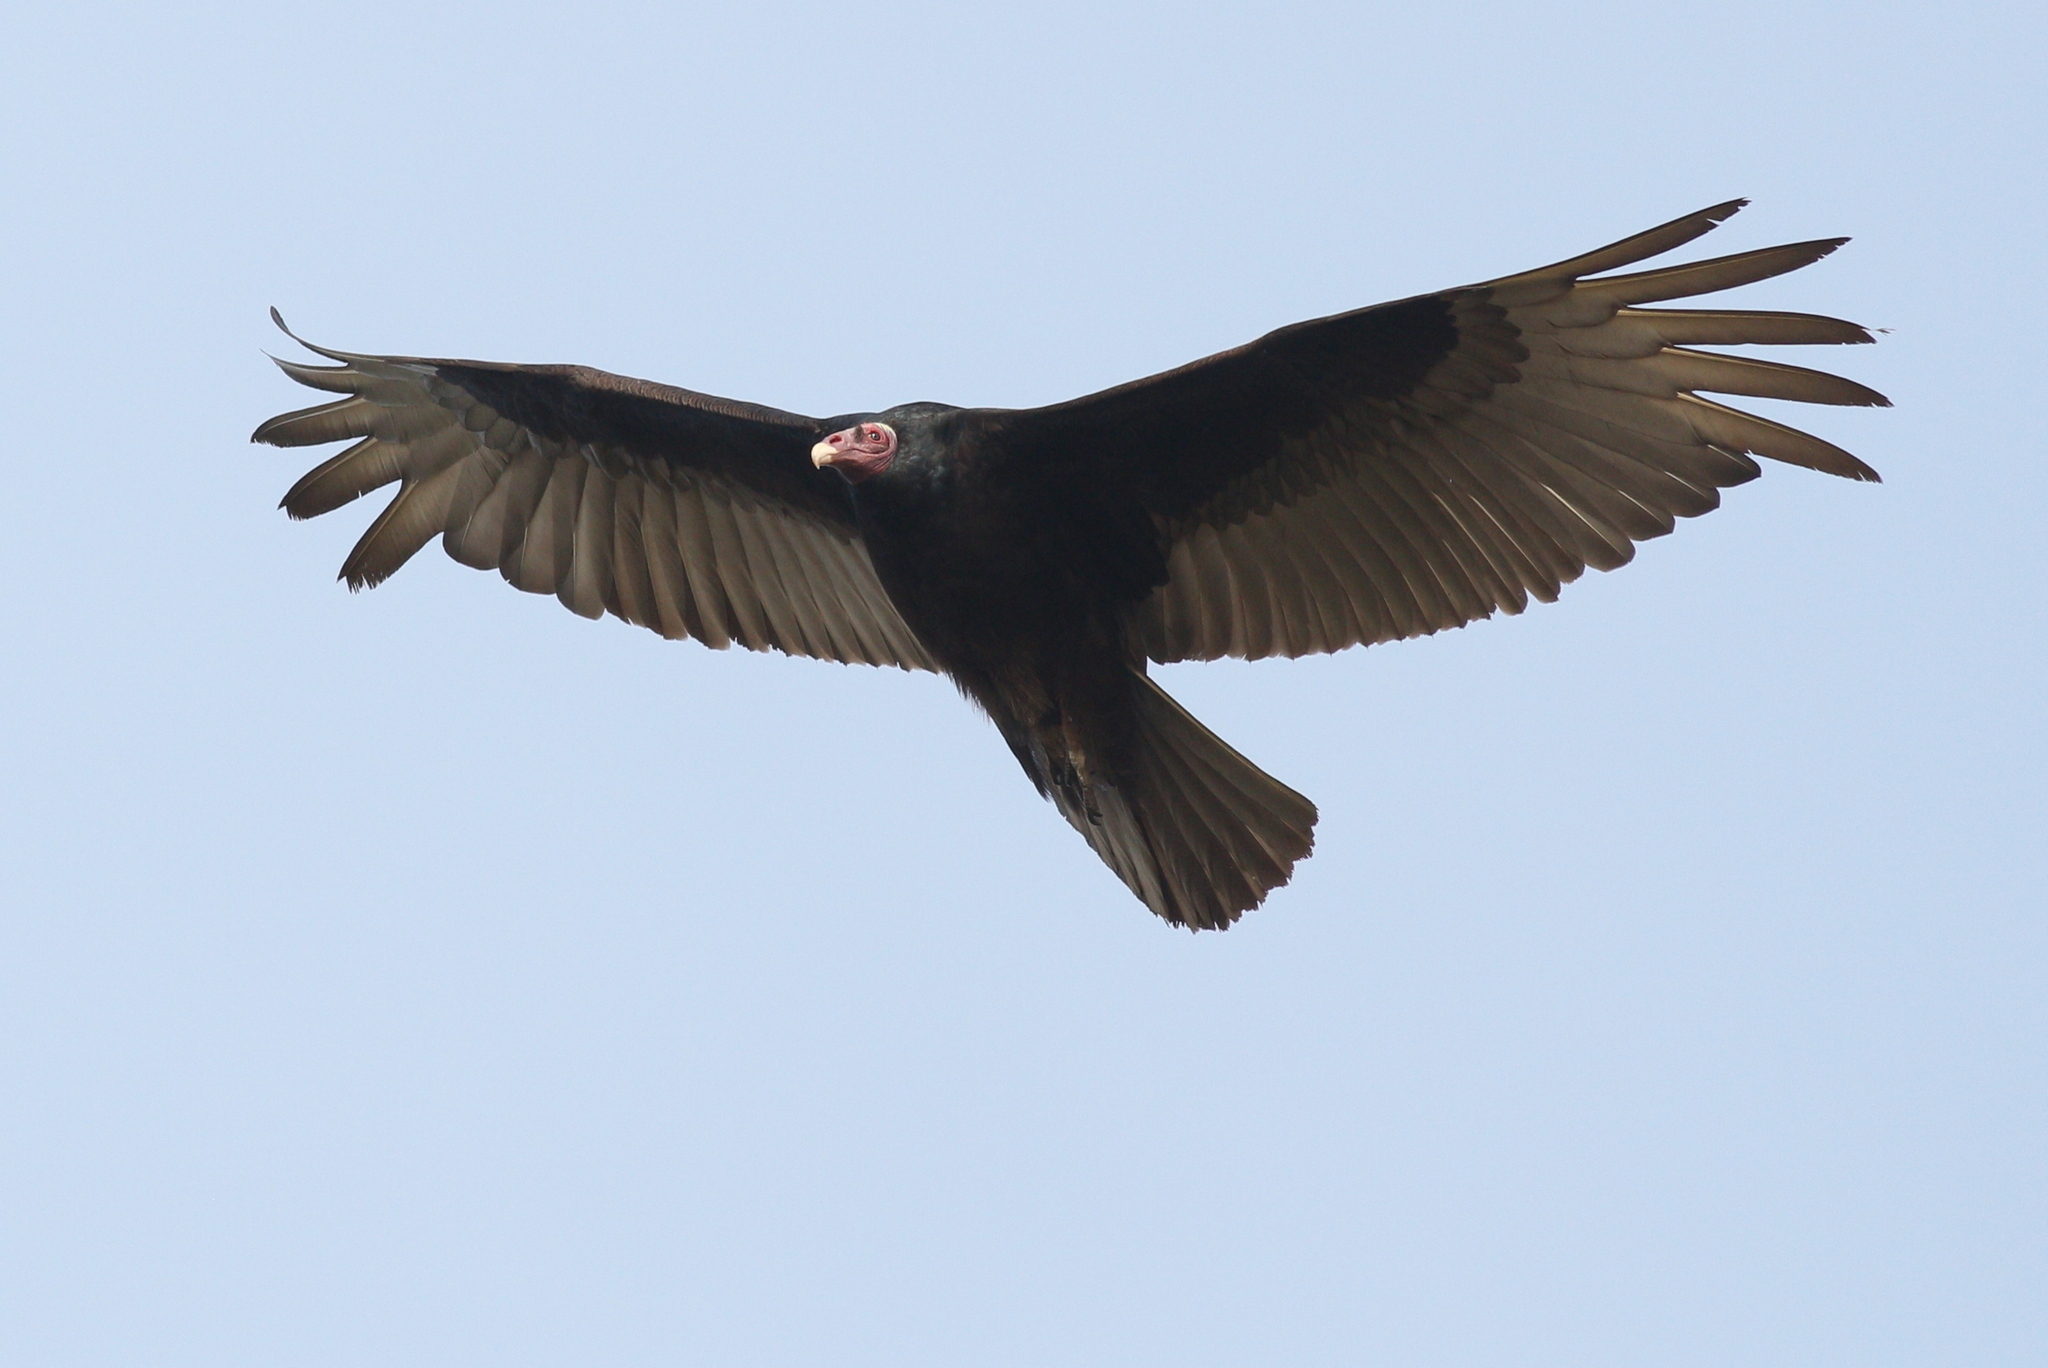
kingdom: Animalia
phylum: Chordata
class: Aves
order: Accipitriformes
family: Cathartidae
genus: Cathartes
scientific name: Cathartes aura
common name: Turkey vulture
